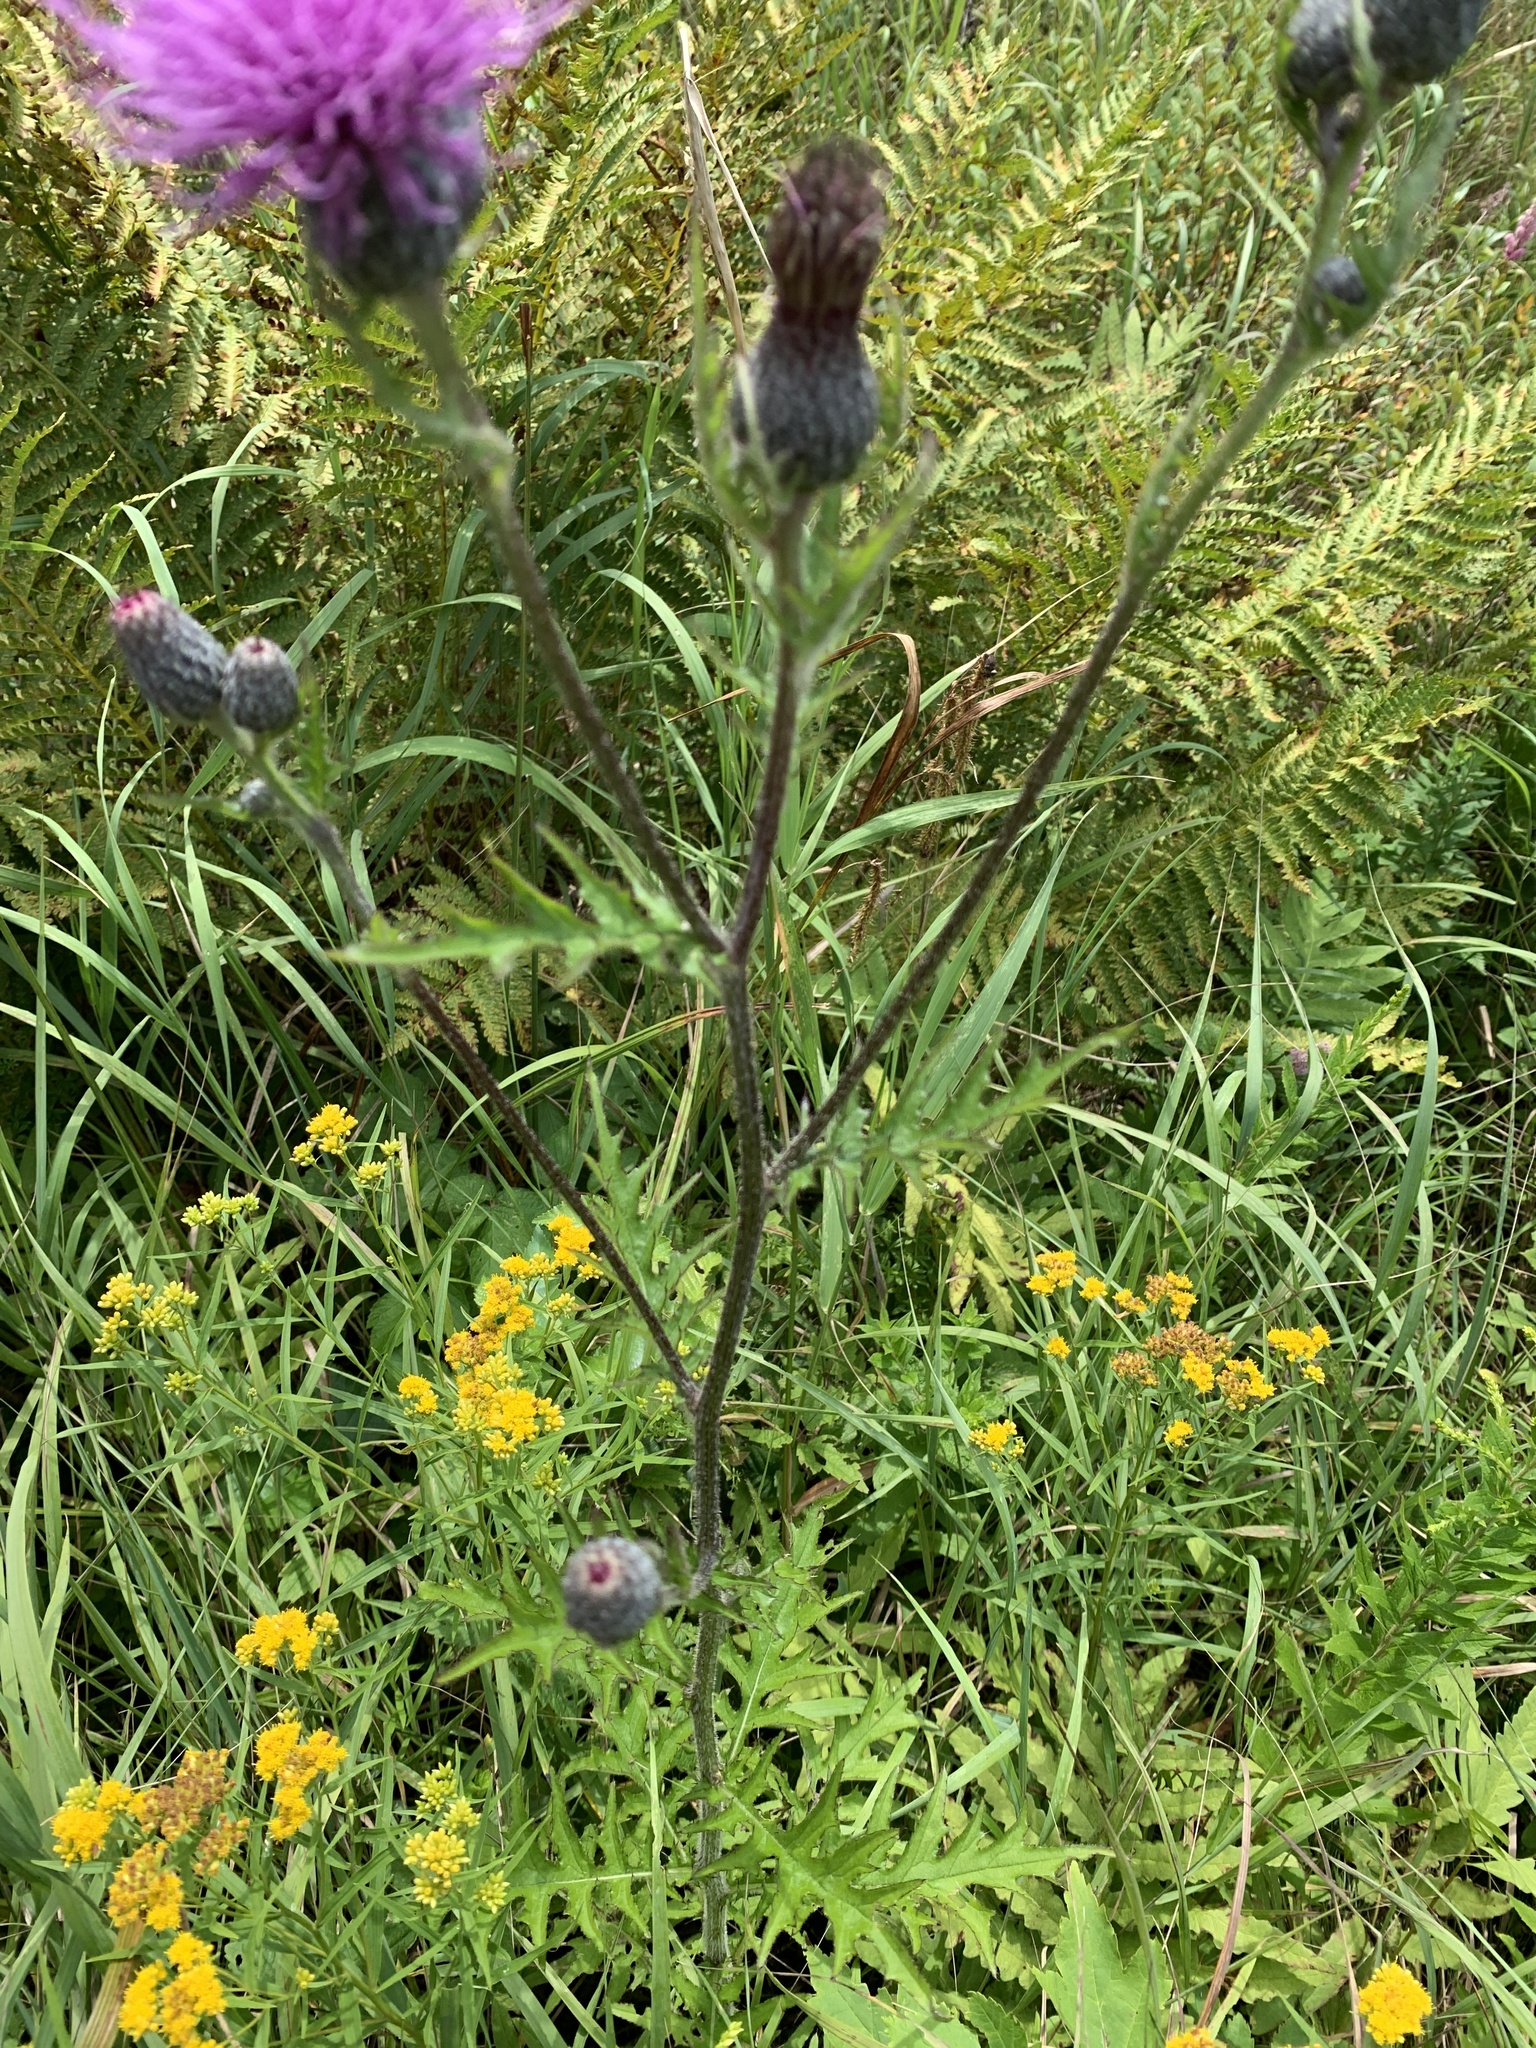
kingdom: Plantae
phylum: Tracheophyta
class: Magnoliopsida
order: Asterales
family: Asteraceae
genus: Cirsium
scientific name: Cirsium muticum
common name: Dunce-nettle
